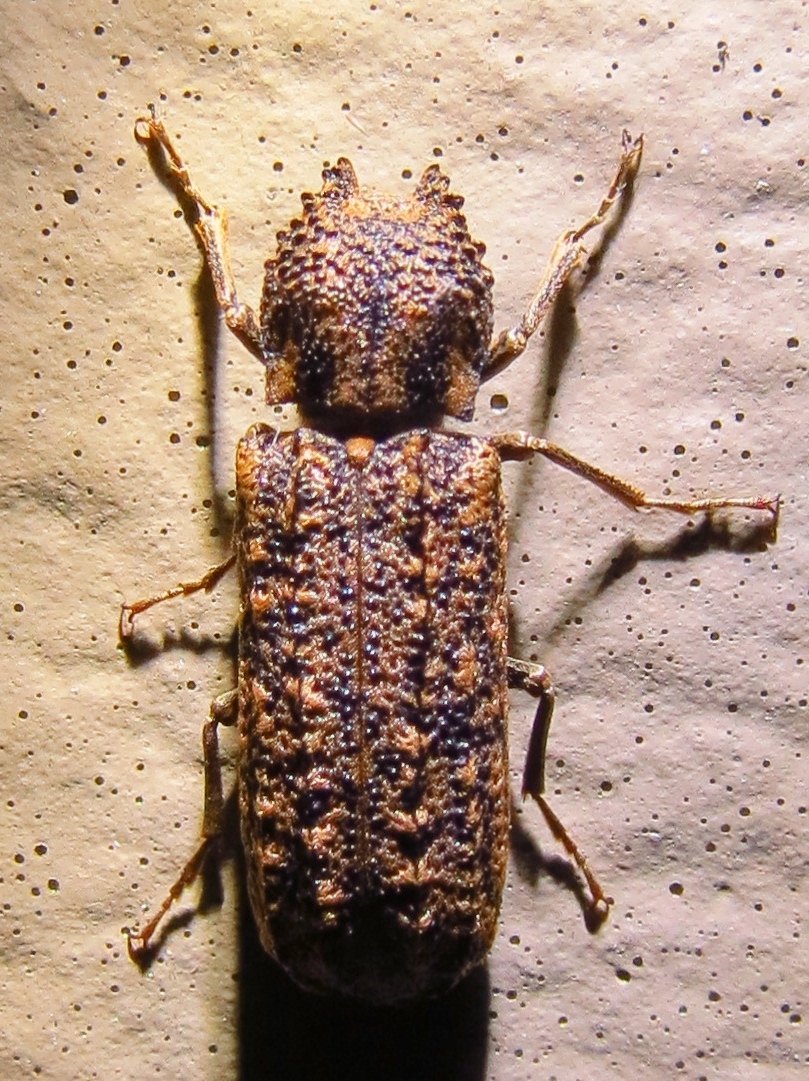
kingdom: Animalia
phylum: Arthropoda
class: Insecta
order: Coleoptera
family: Bostrichidae
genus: Lichenophanes
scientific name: Lichenophanes bicornis
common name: Two-horned powder-post beetle
